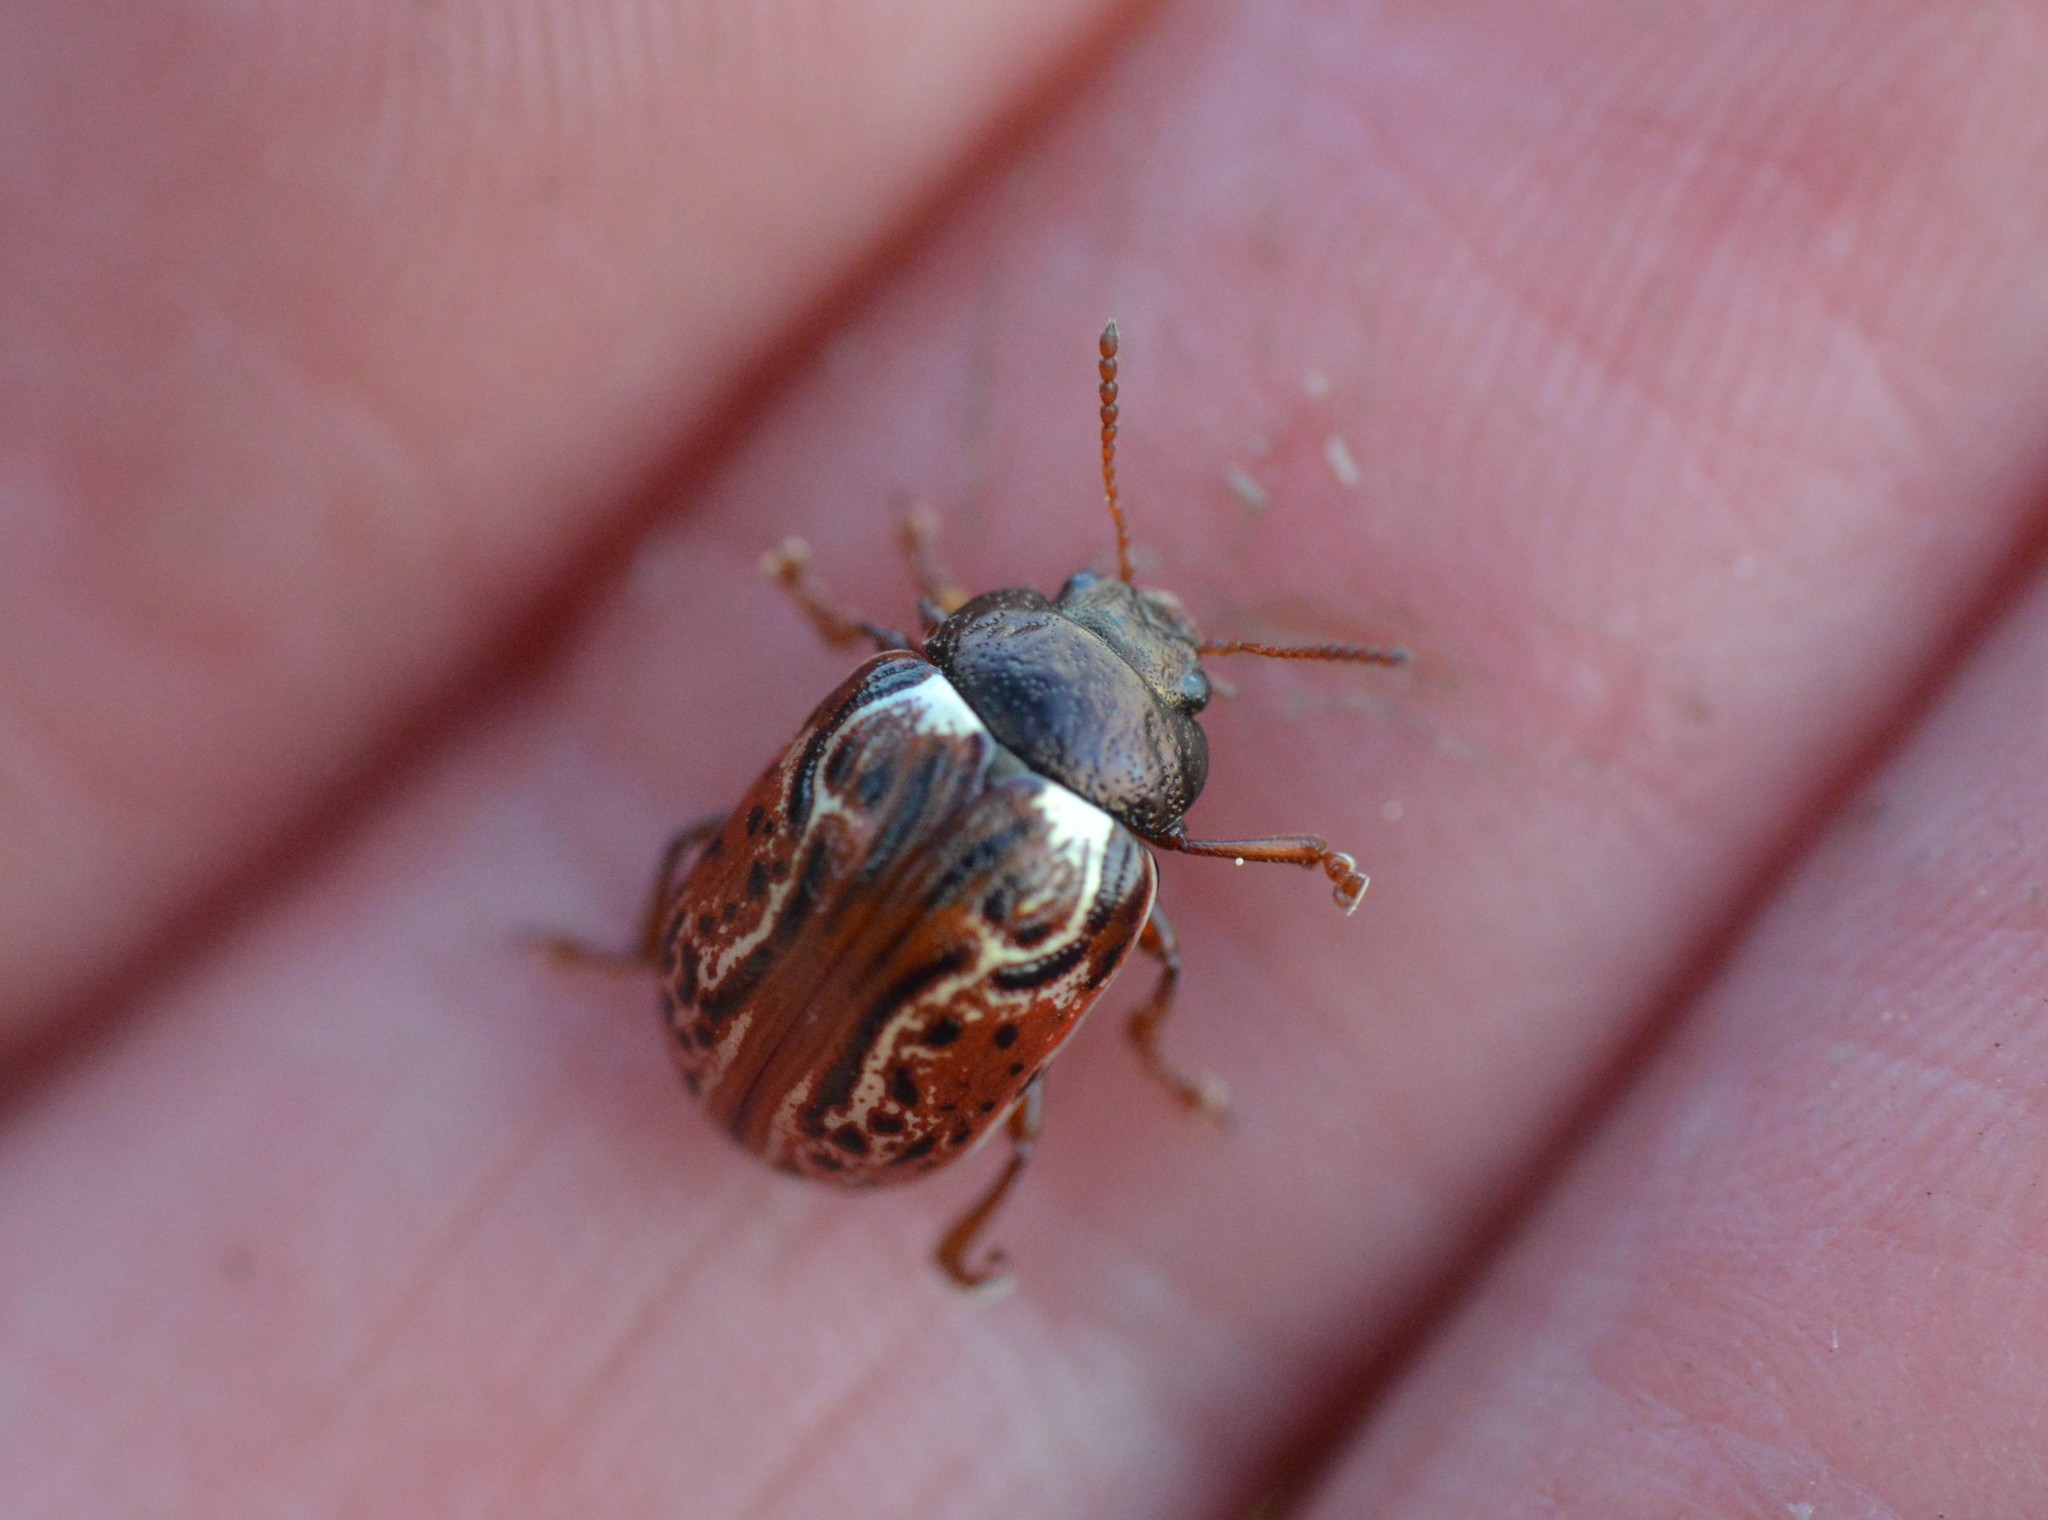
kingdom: Animalia
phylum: Arthropoda
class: Insecta
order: Coleoptera
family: Chrysomelidae
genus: Calligrapha
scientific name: Calligrapha alni
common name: Russet alder leaf beetle
